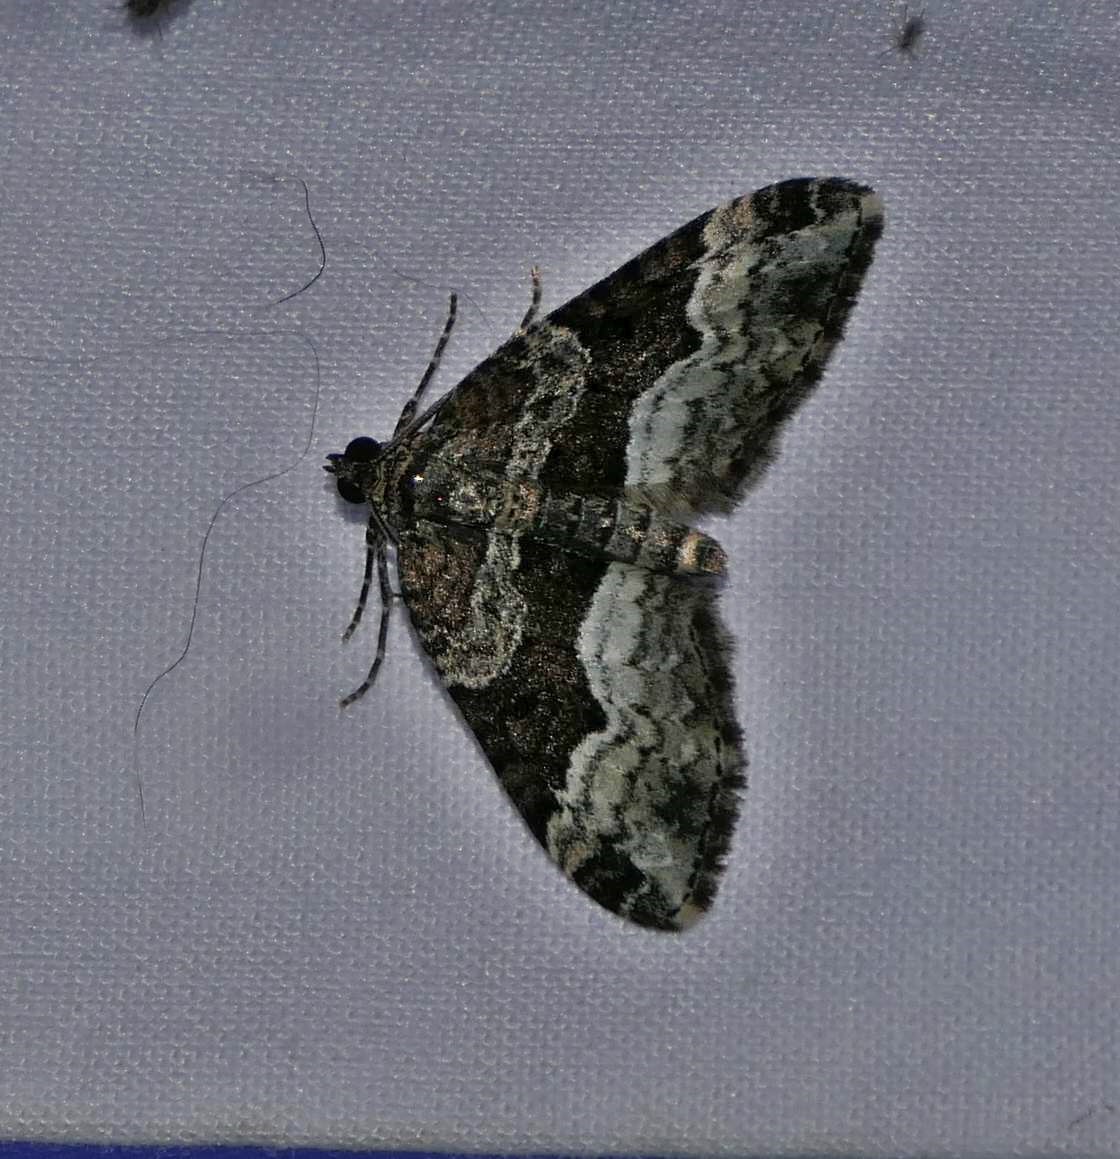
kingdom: Animalia
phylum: Arthropoda
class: Insecta
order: Lepidoptera
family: Geometridae
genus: Euphyia
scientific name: Euphyia intermediata
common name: Sharp-angled carpet
